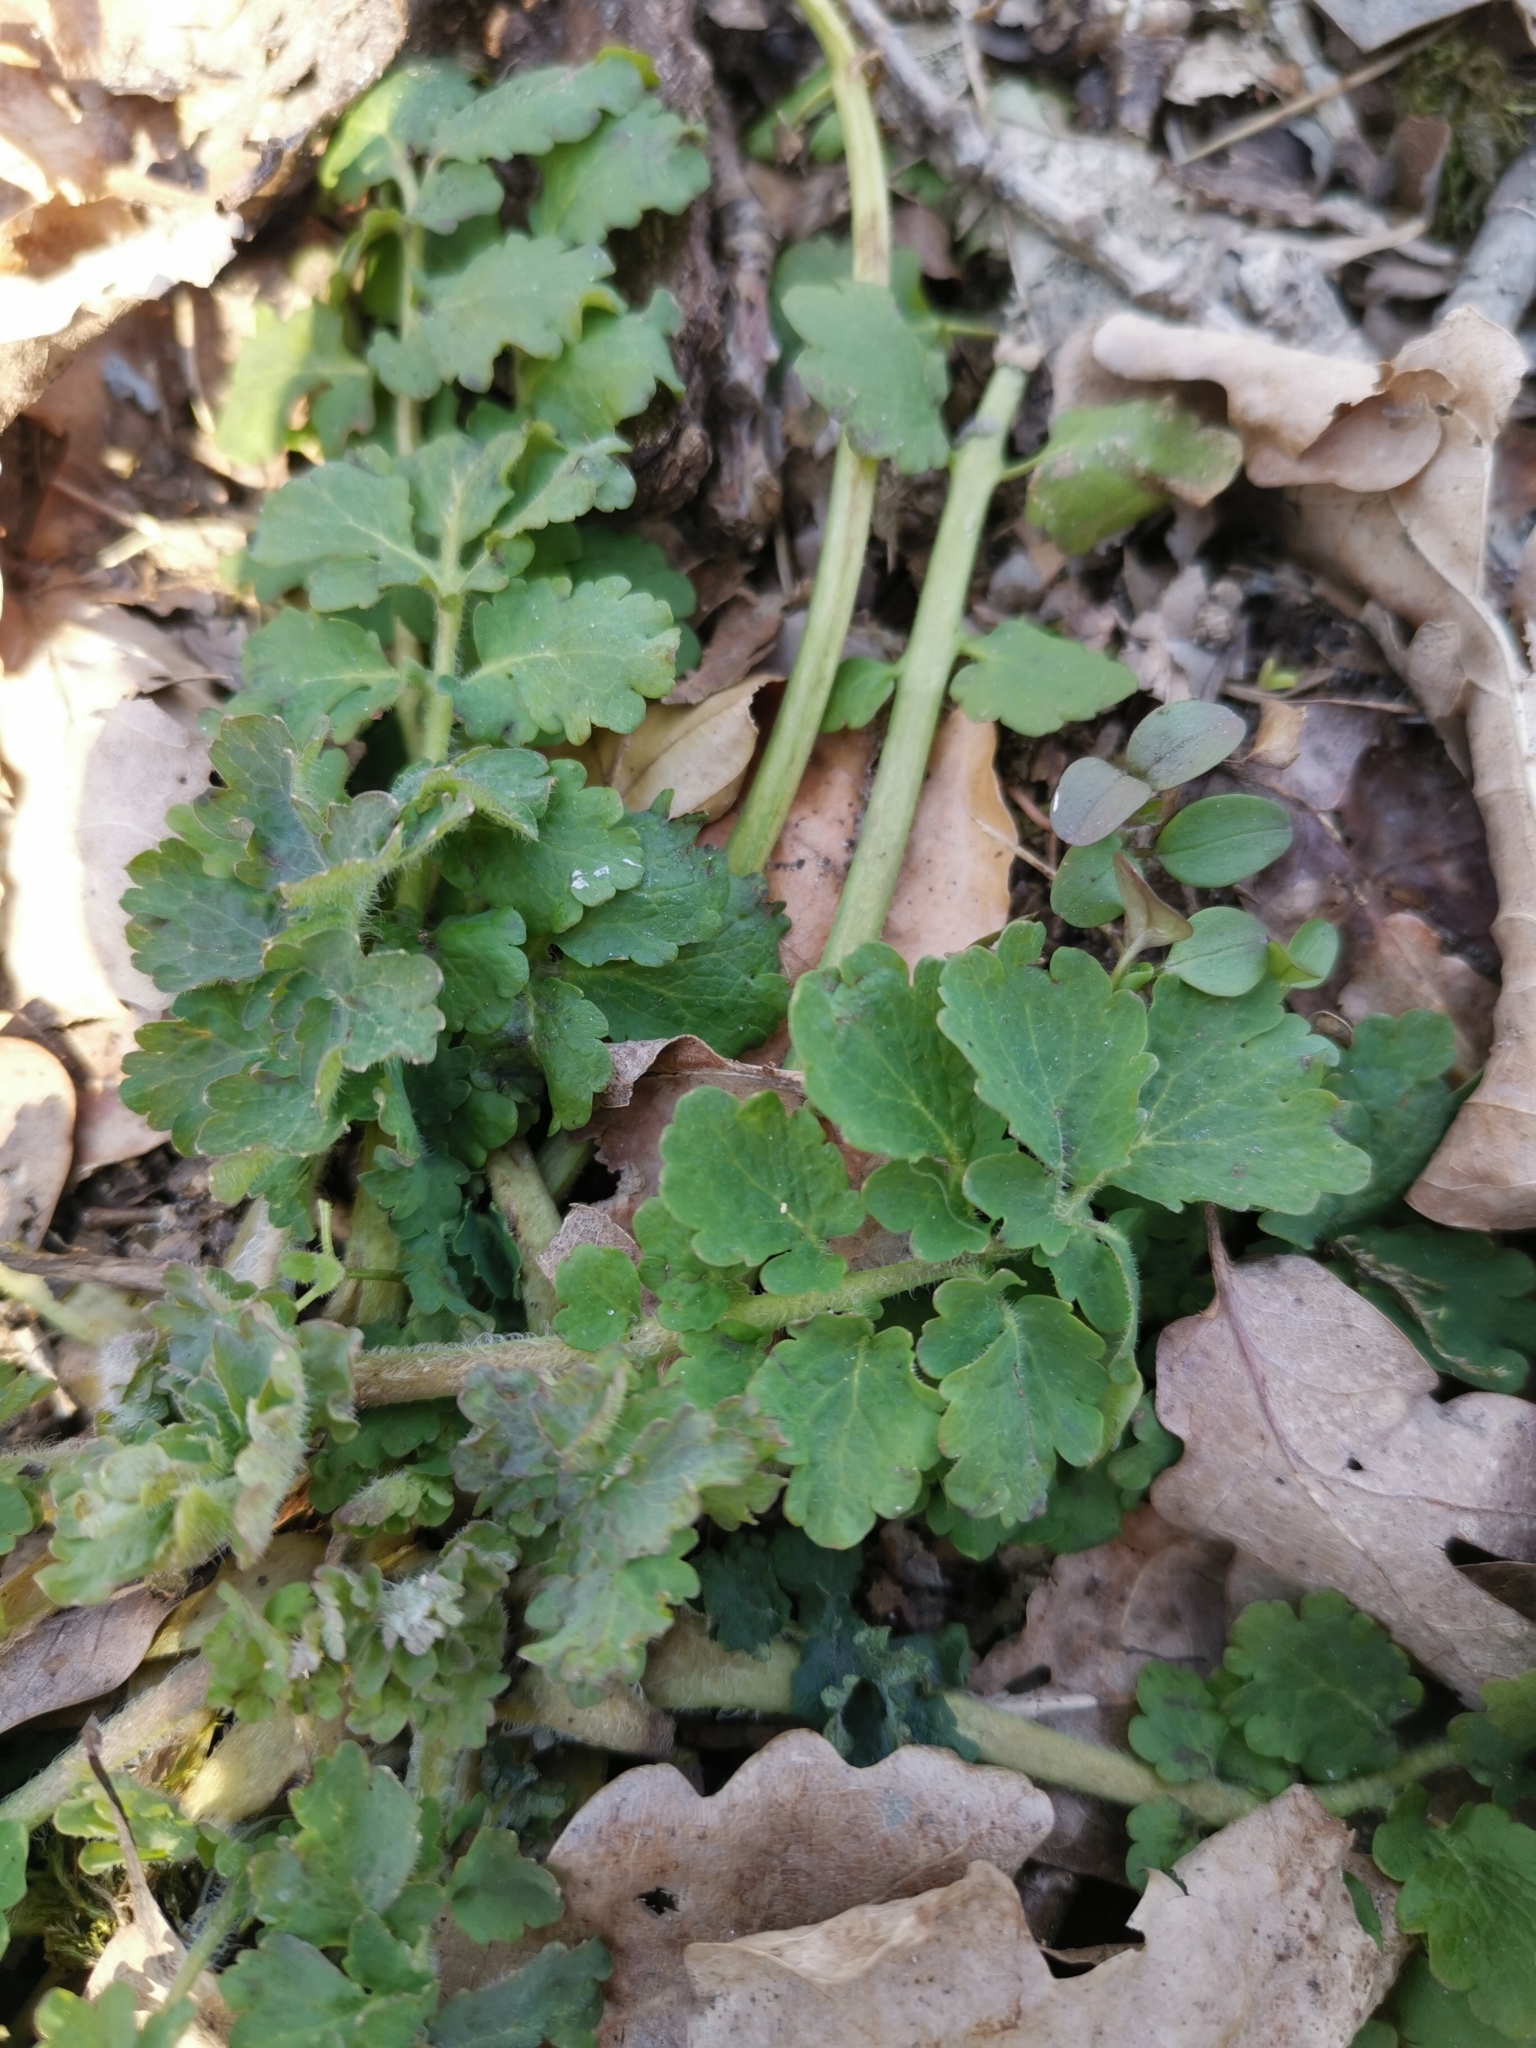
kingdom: Plantae
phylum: Tracheophyta
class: Magnoliopsida
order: Ranunculales
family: Papaveraceae
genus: Chelidonium
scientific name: Chelidonium majus
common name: Greater celandine
